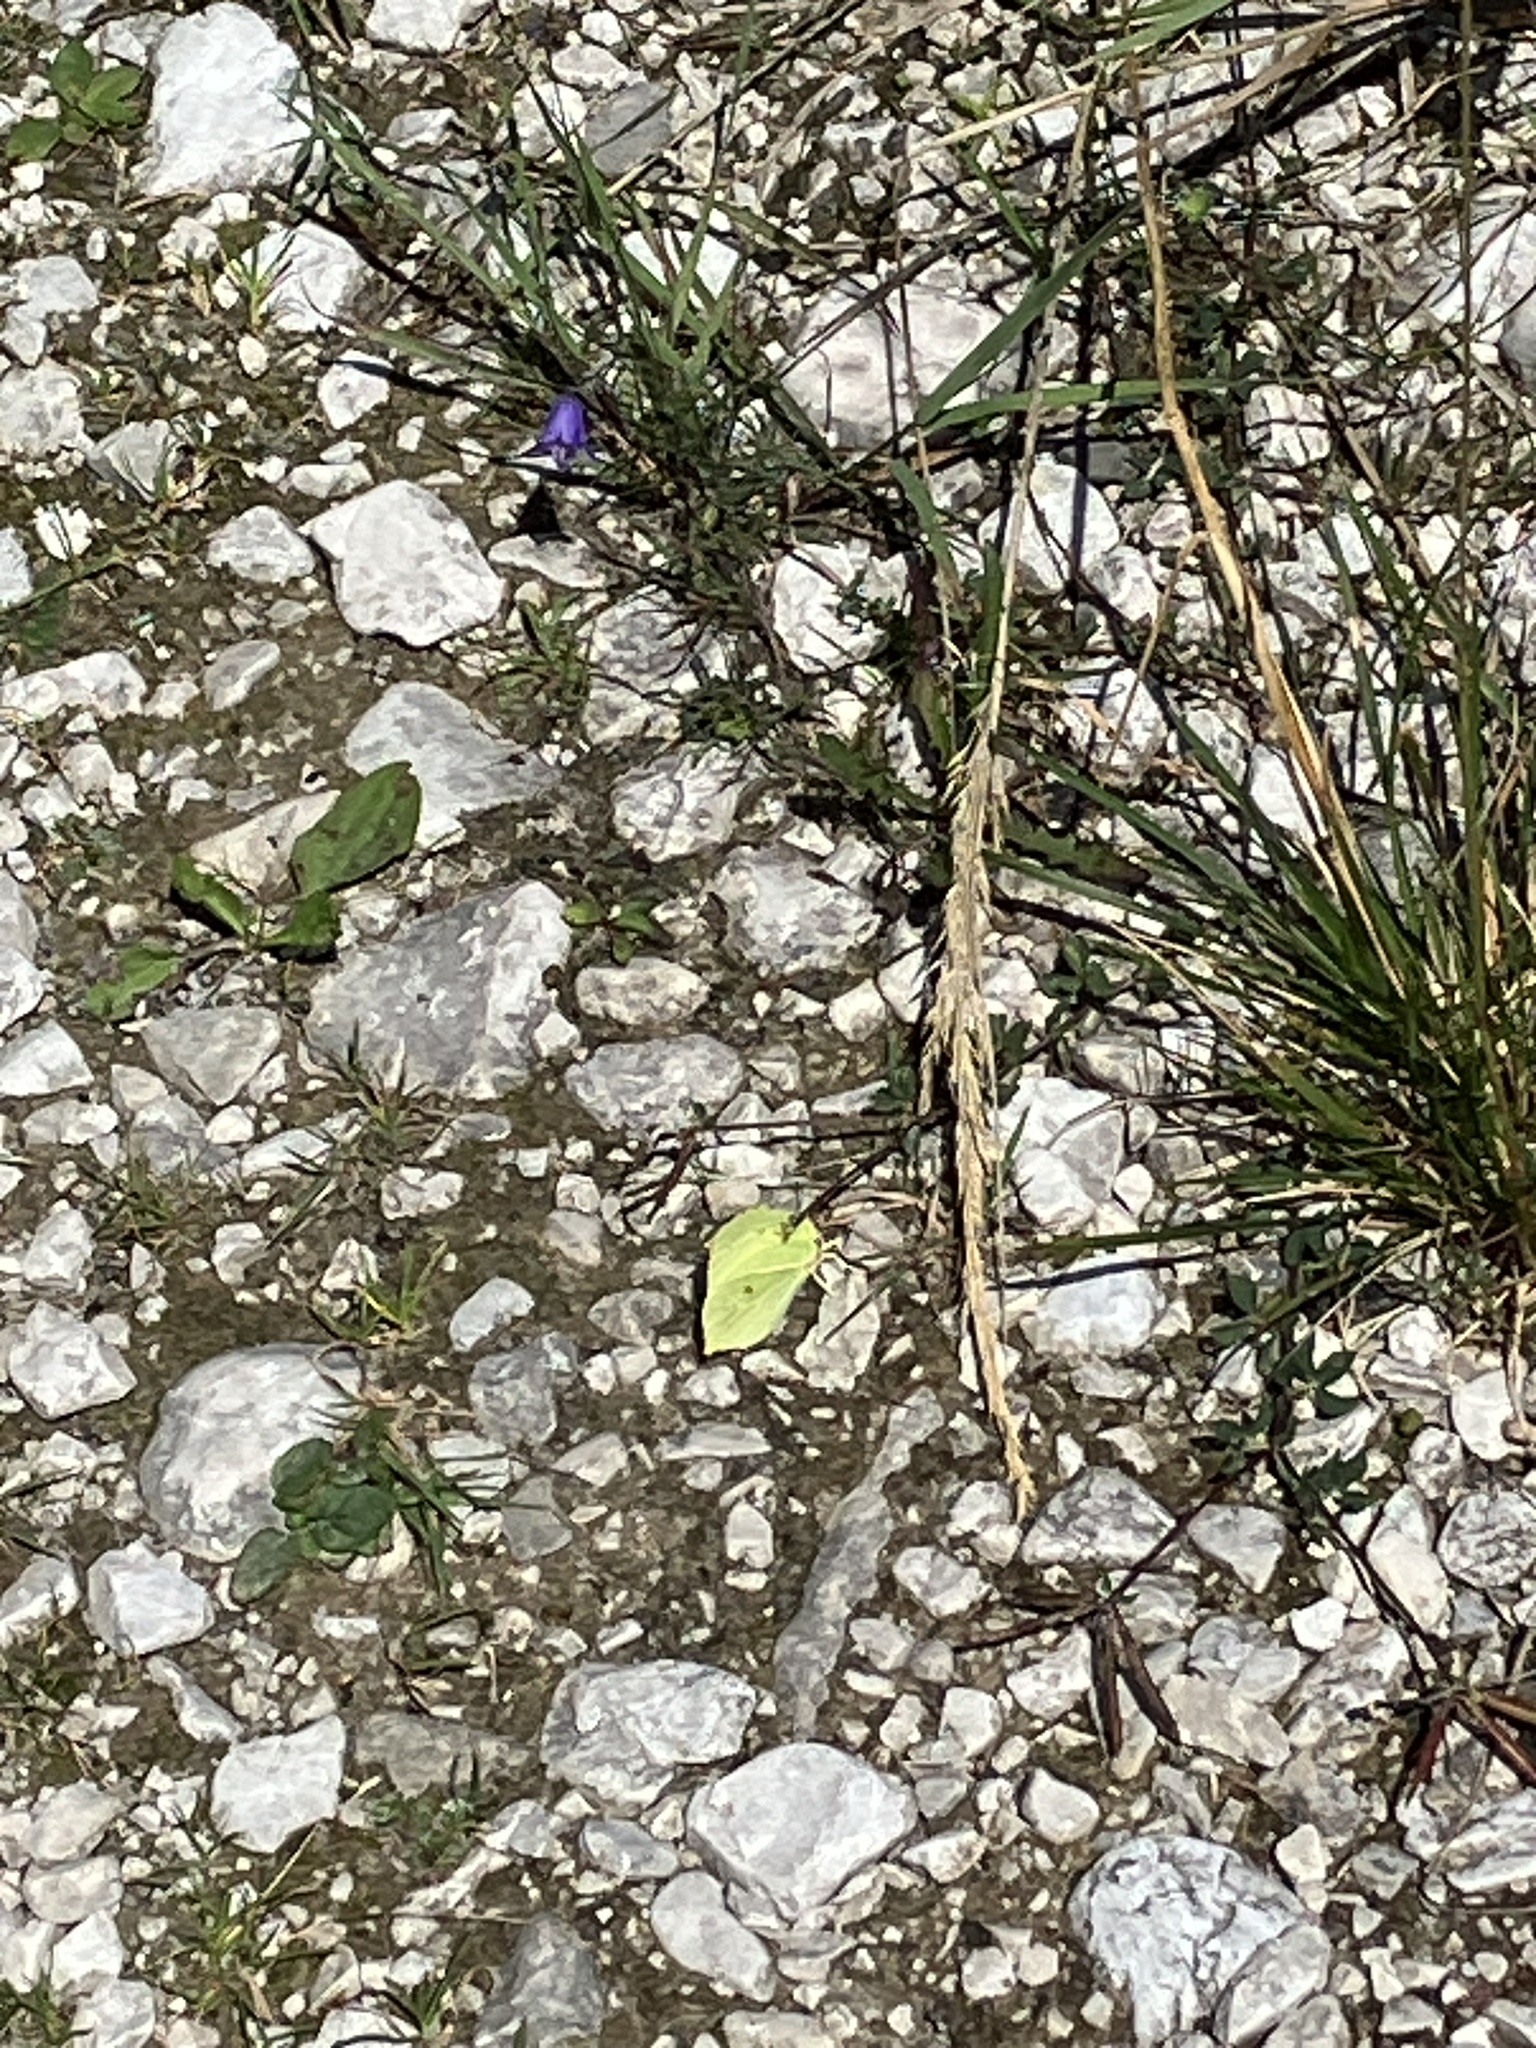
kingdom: Animalia
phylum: Arthropoda
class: Insecta
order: Lepidoptera
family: Pieridae
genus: Gonepteryx
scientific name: Gonepteryx rhamni
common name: Brimstone
